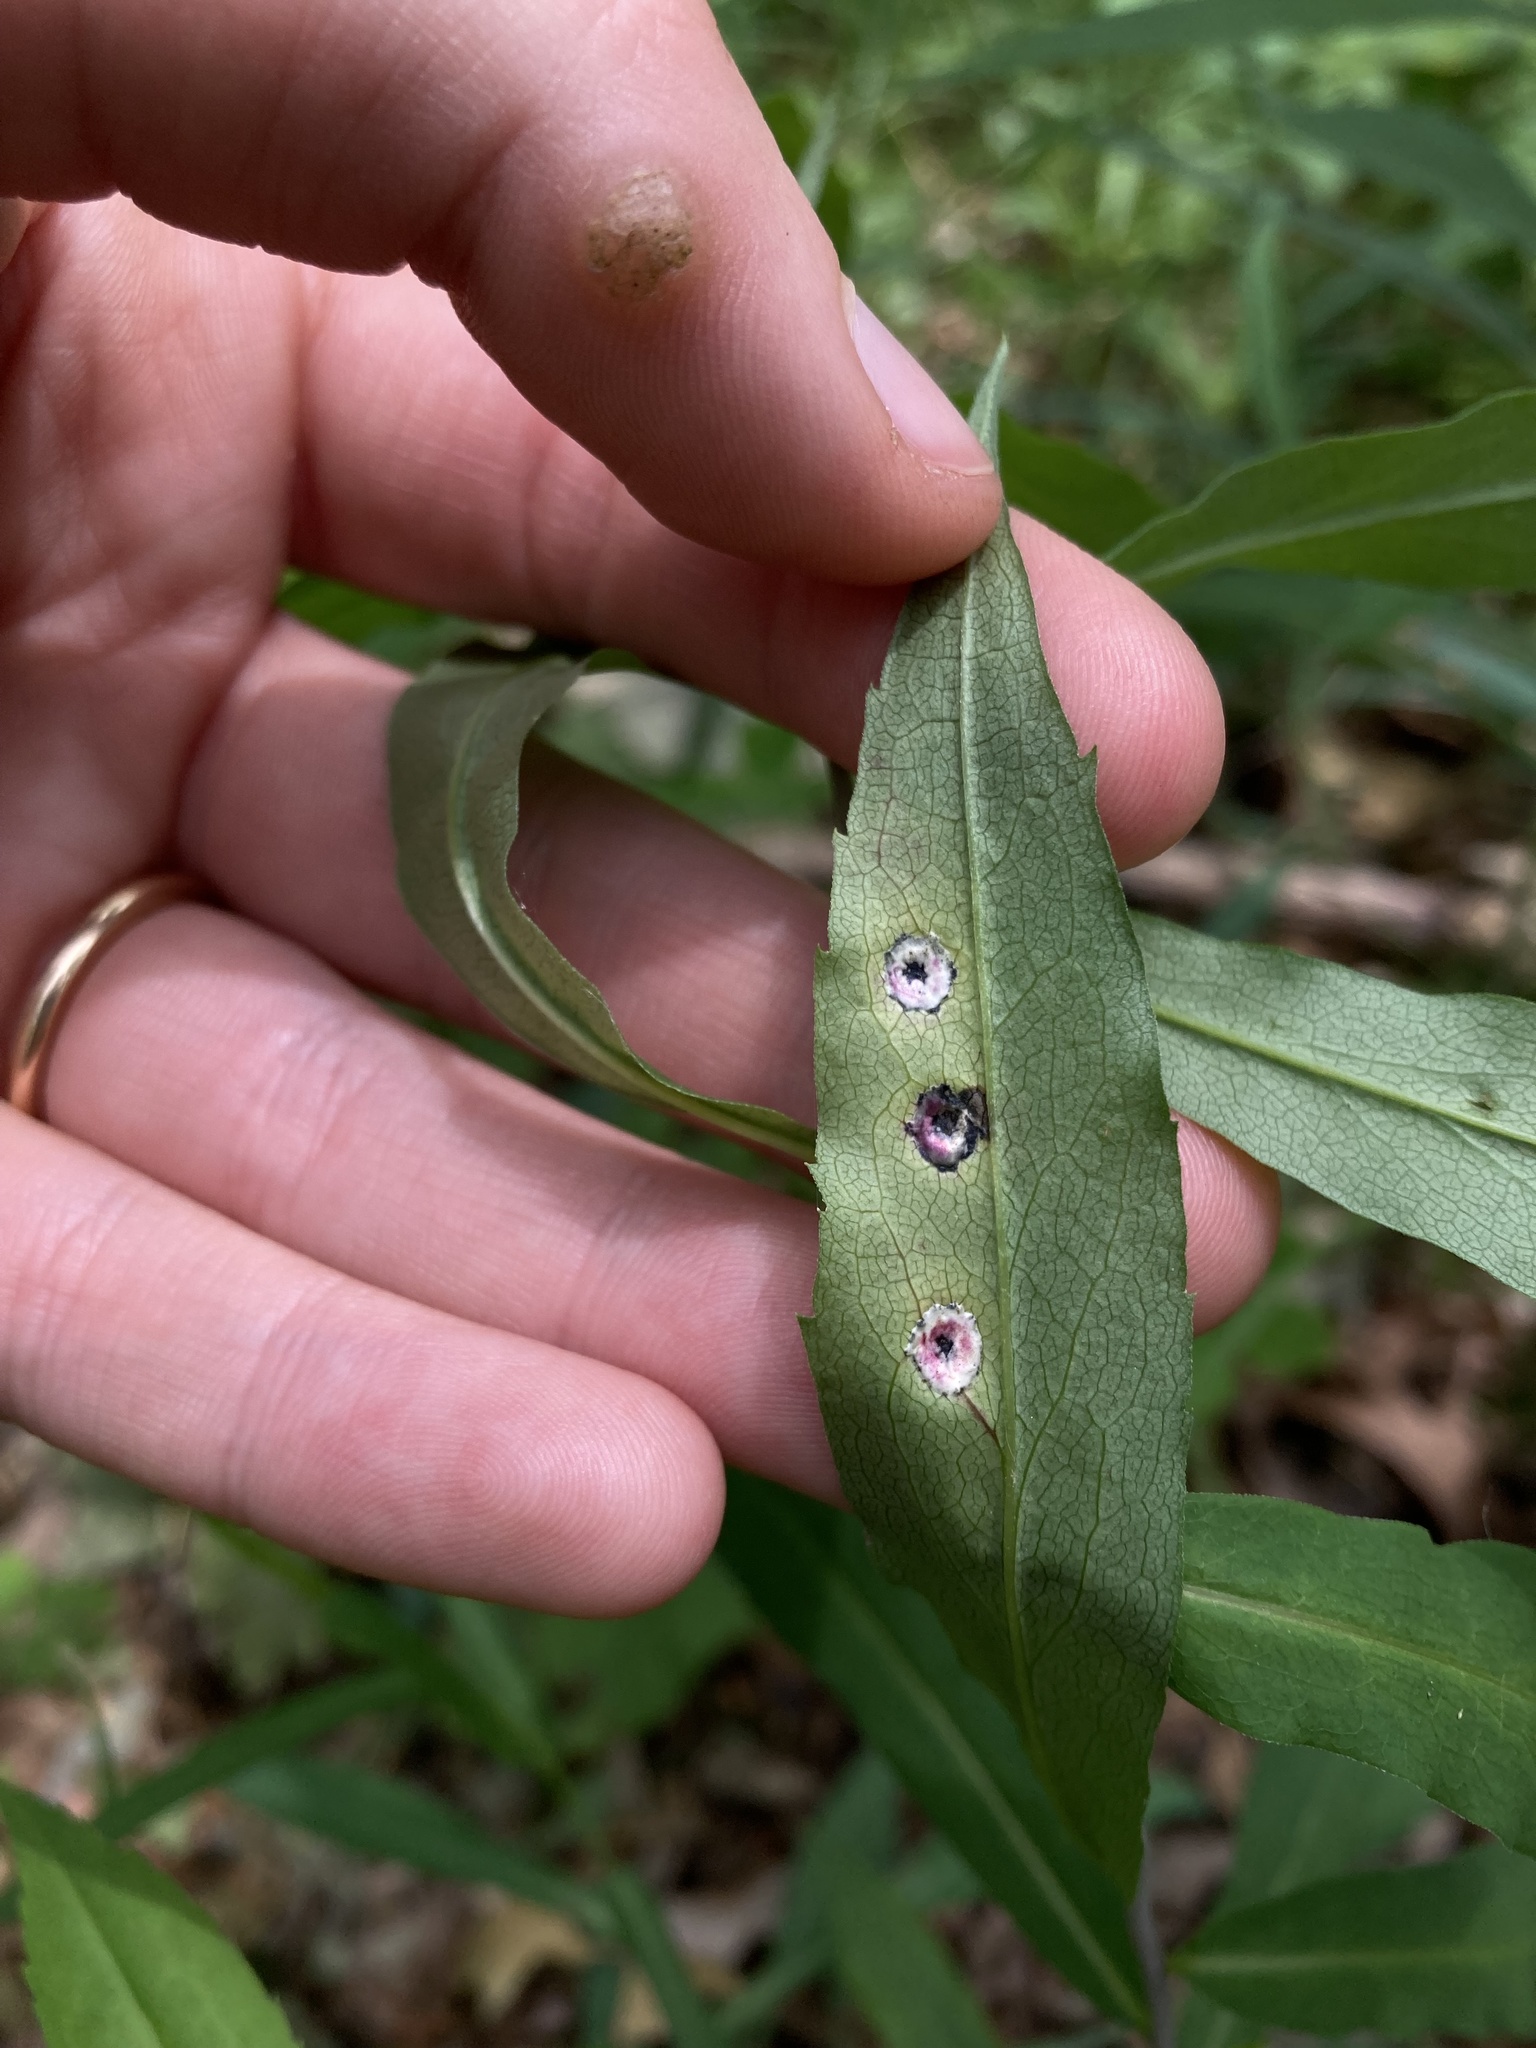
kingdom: Animalia
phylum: Arthropoda
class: Insecta
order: Diptera
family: Cecidomyiidae
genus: Asteromyia
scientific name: Asteromyia carbonifera
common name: Carbonifera goldenrod gall midge
